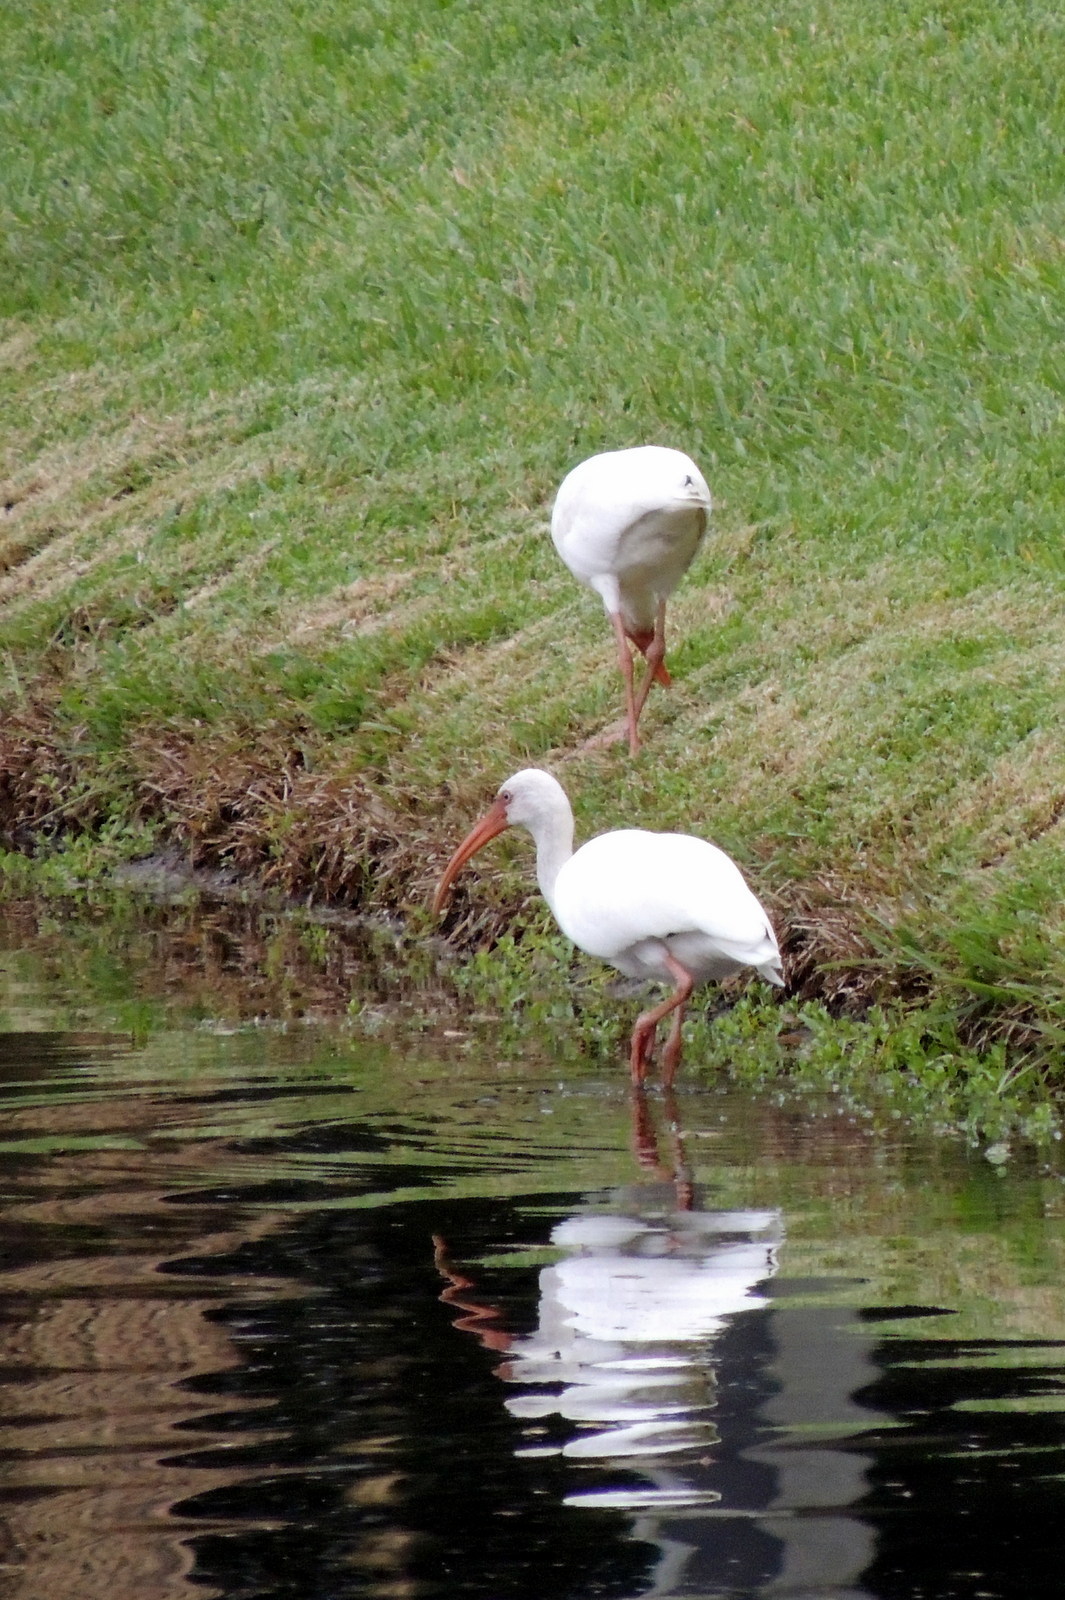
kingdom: Animalia
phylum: Chordata
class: Aves
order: Pelecaniformes
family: Threskiornithidae
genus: Eudocimus
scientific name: Eudocimus albus
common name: White ibis
